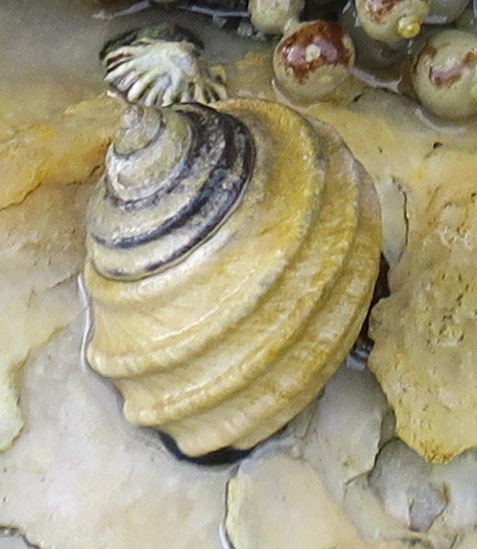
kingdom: Animalia
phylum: Mollusca
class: Gastropoda
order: Trochida
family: Trochidae
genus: Austrocochlea
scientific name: Austrocochlea constricta
